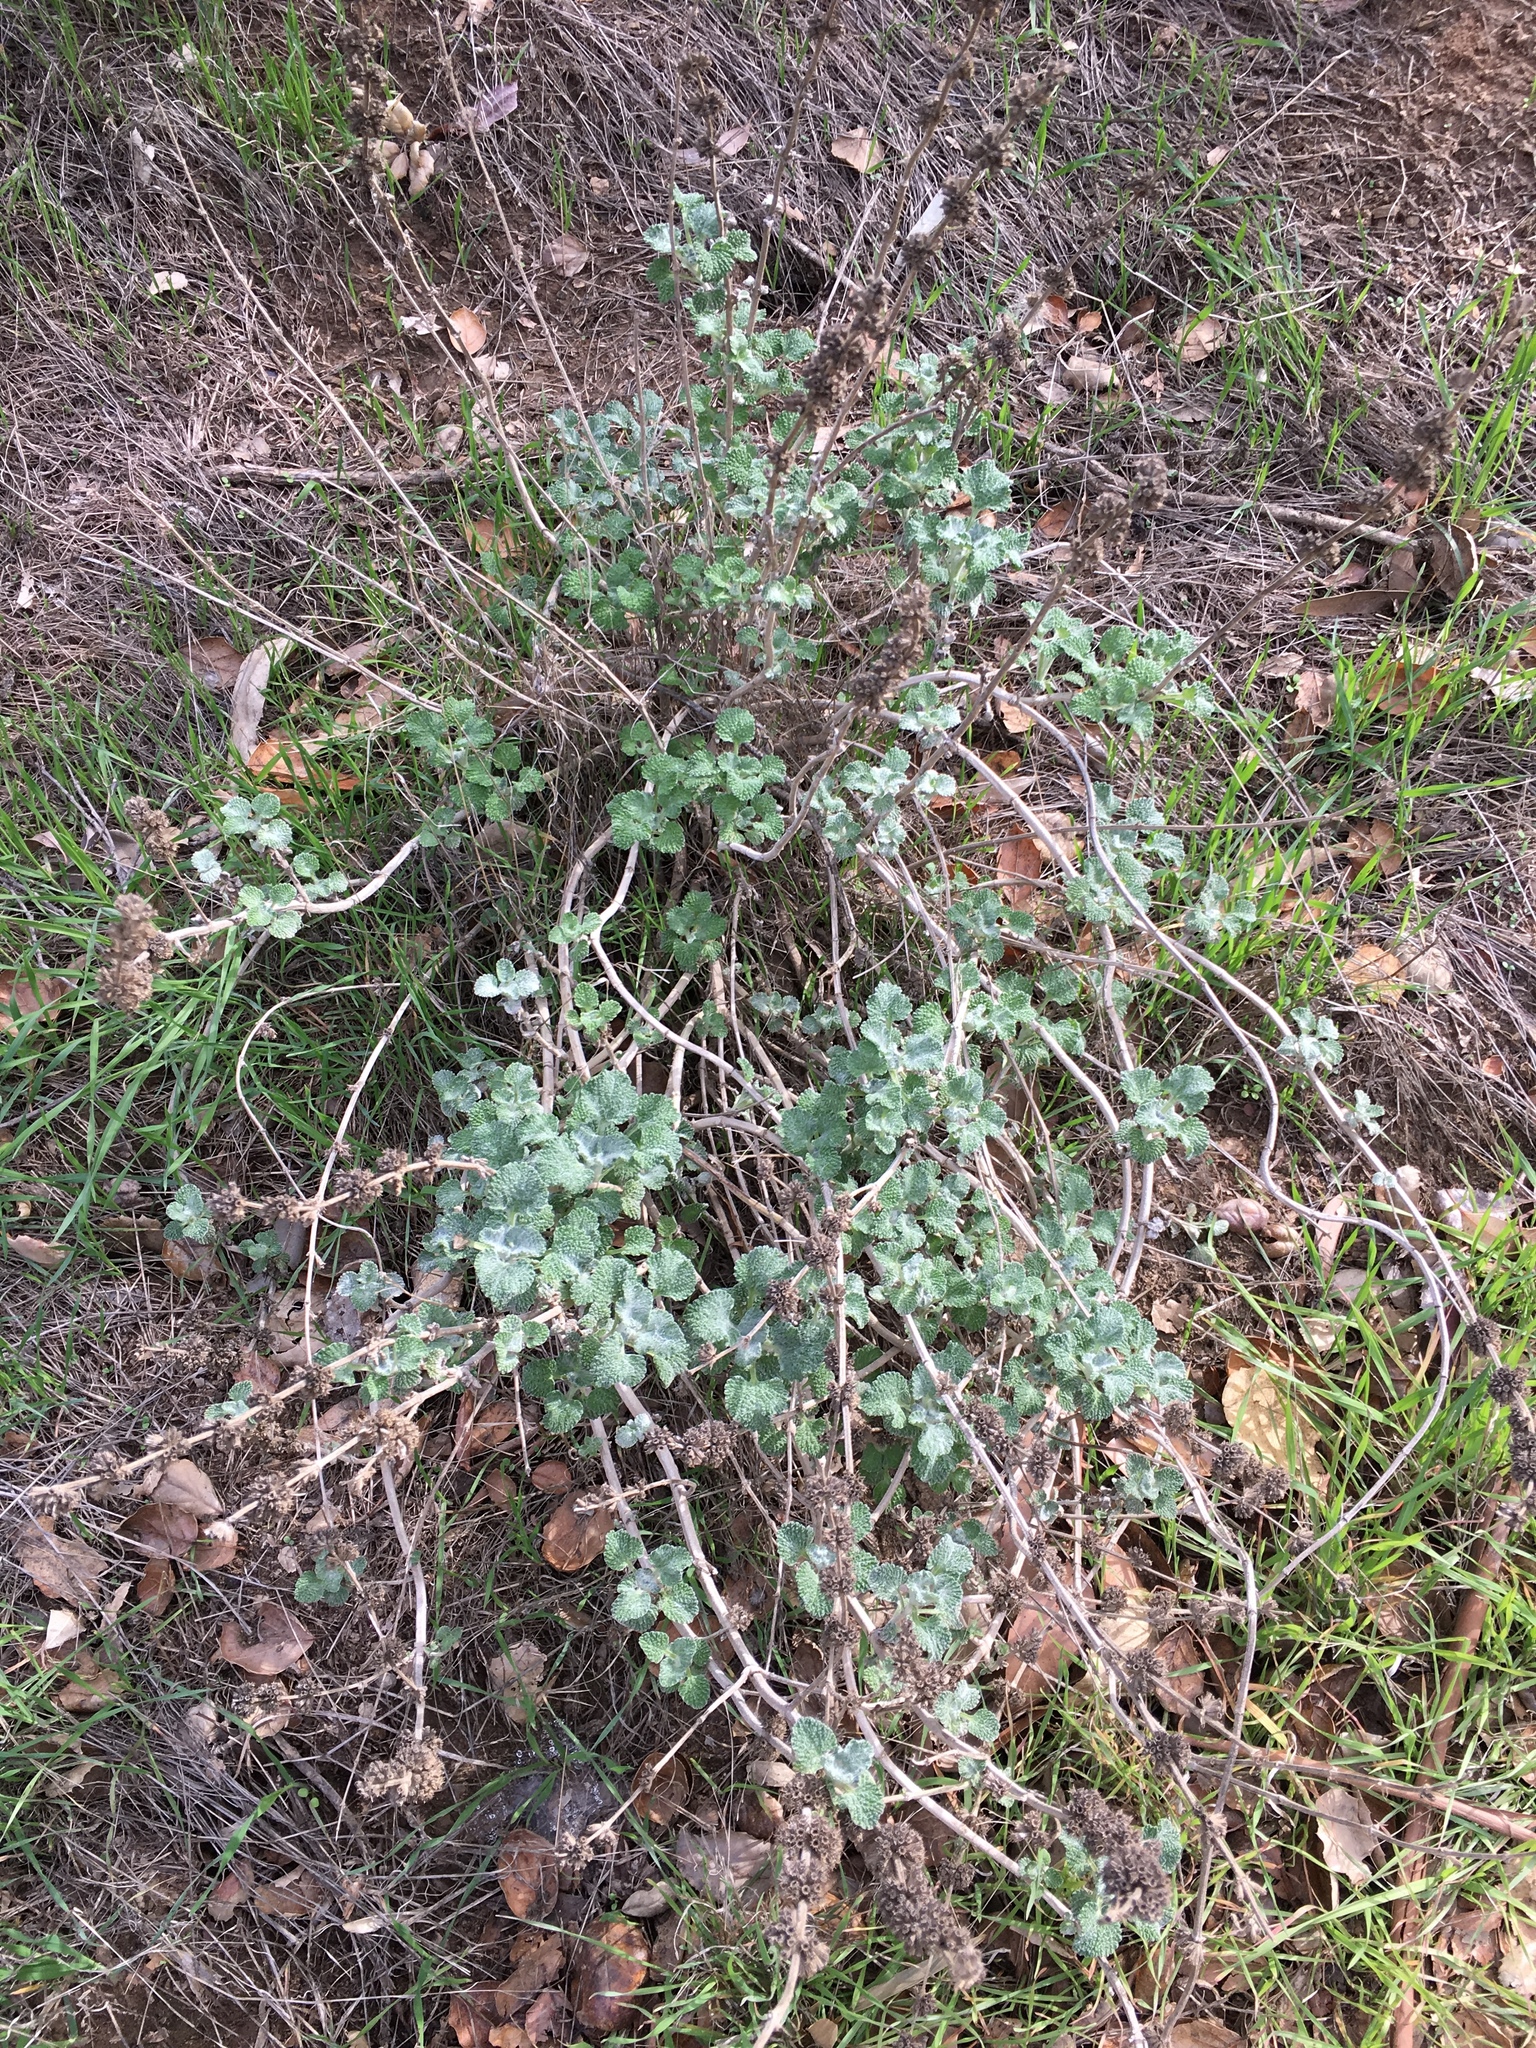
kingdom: Plantae
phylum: Tracheophyta
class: Magnoliopsida
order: Lamiales
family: Lamiaceae
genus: Marrubium
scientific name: Marrubium vulgare
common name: Horehound
